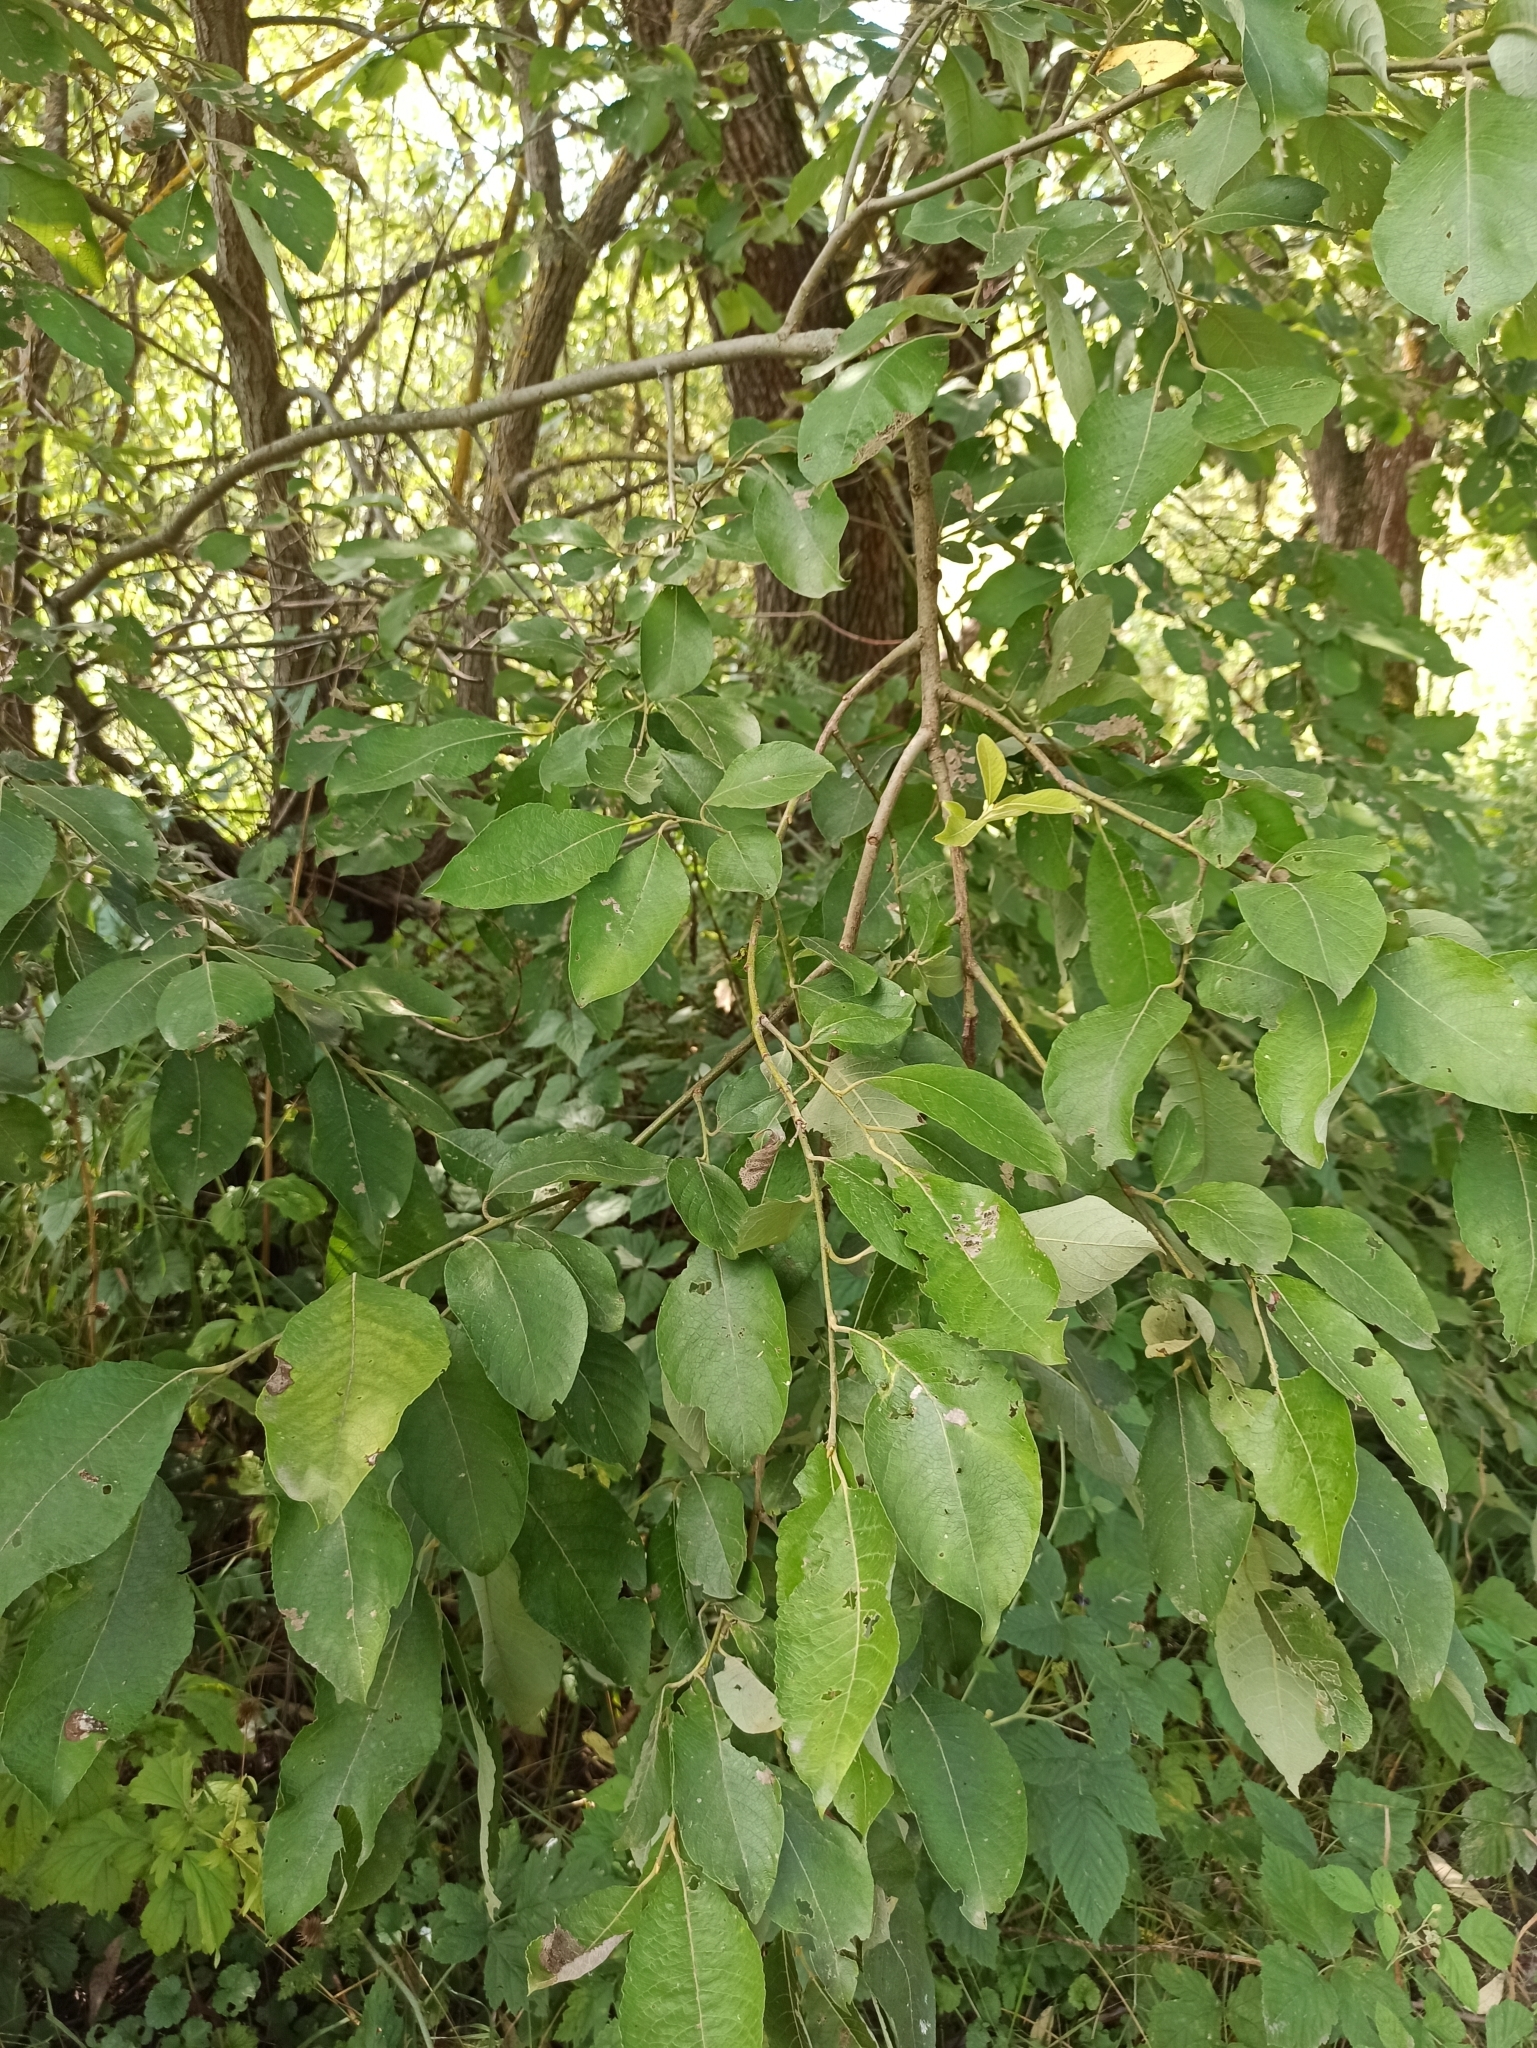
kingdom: Plantae
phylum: Tracheophyta
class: Magnoliopsida
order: Malpighiales
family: Salicaceae
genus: Salix
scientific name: Salix caprea
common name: Goat willow
